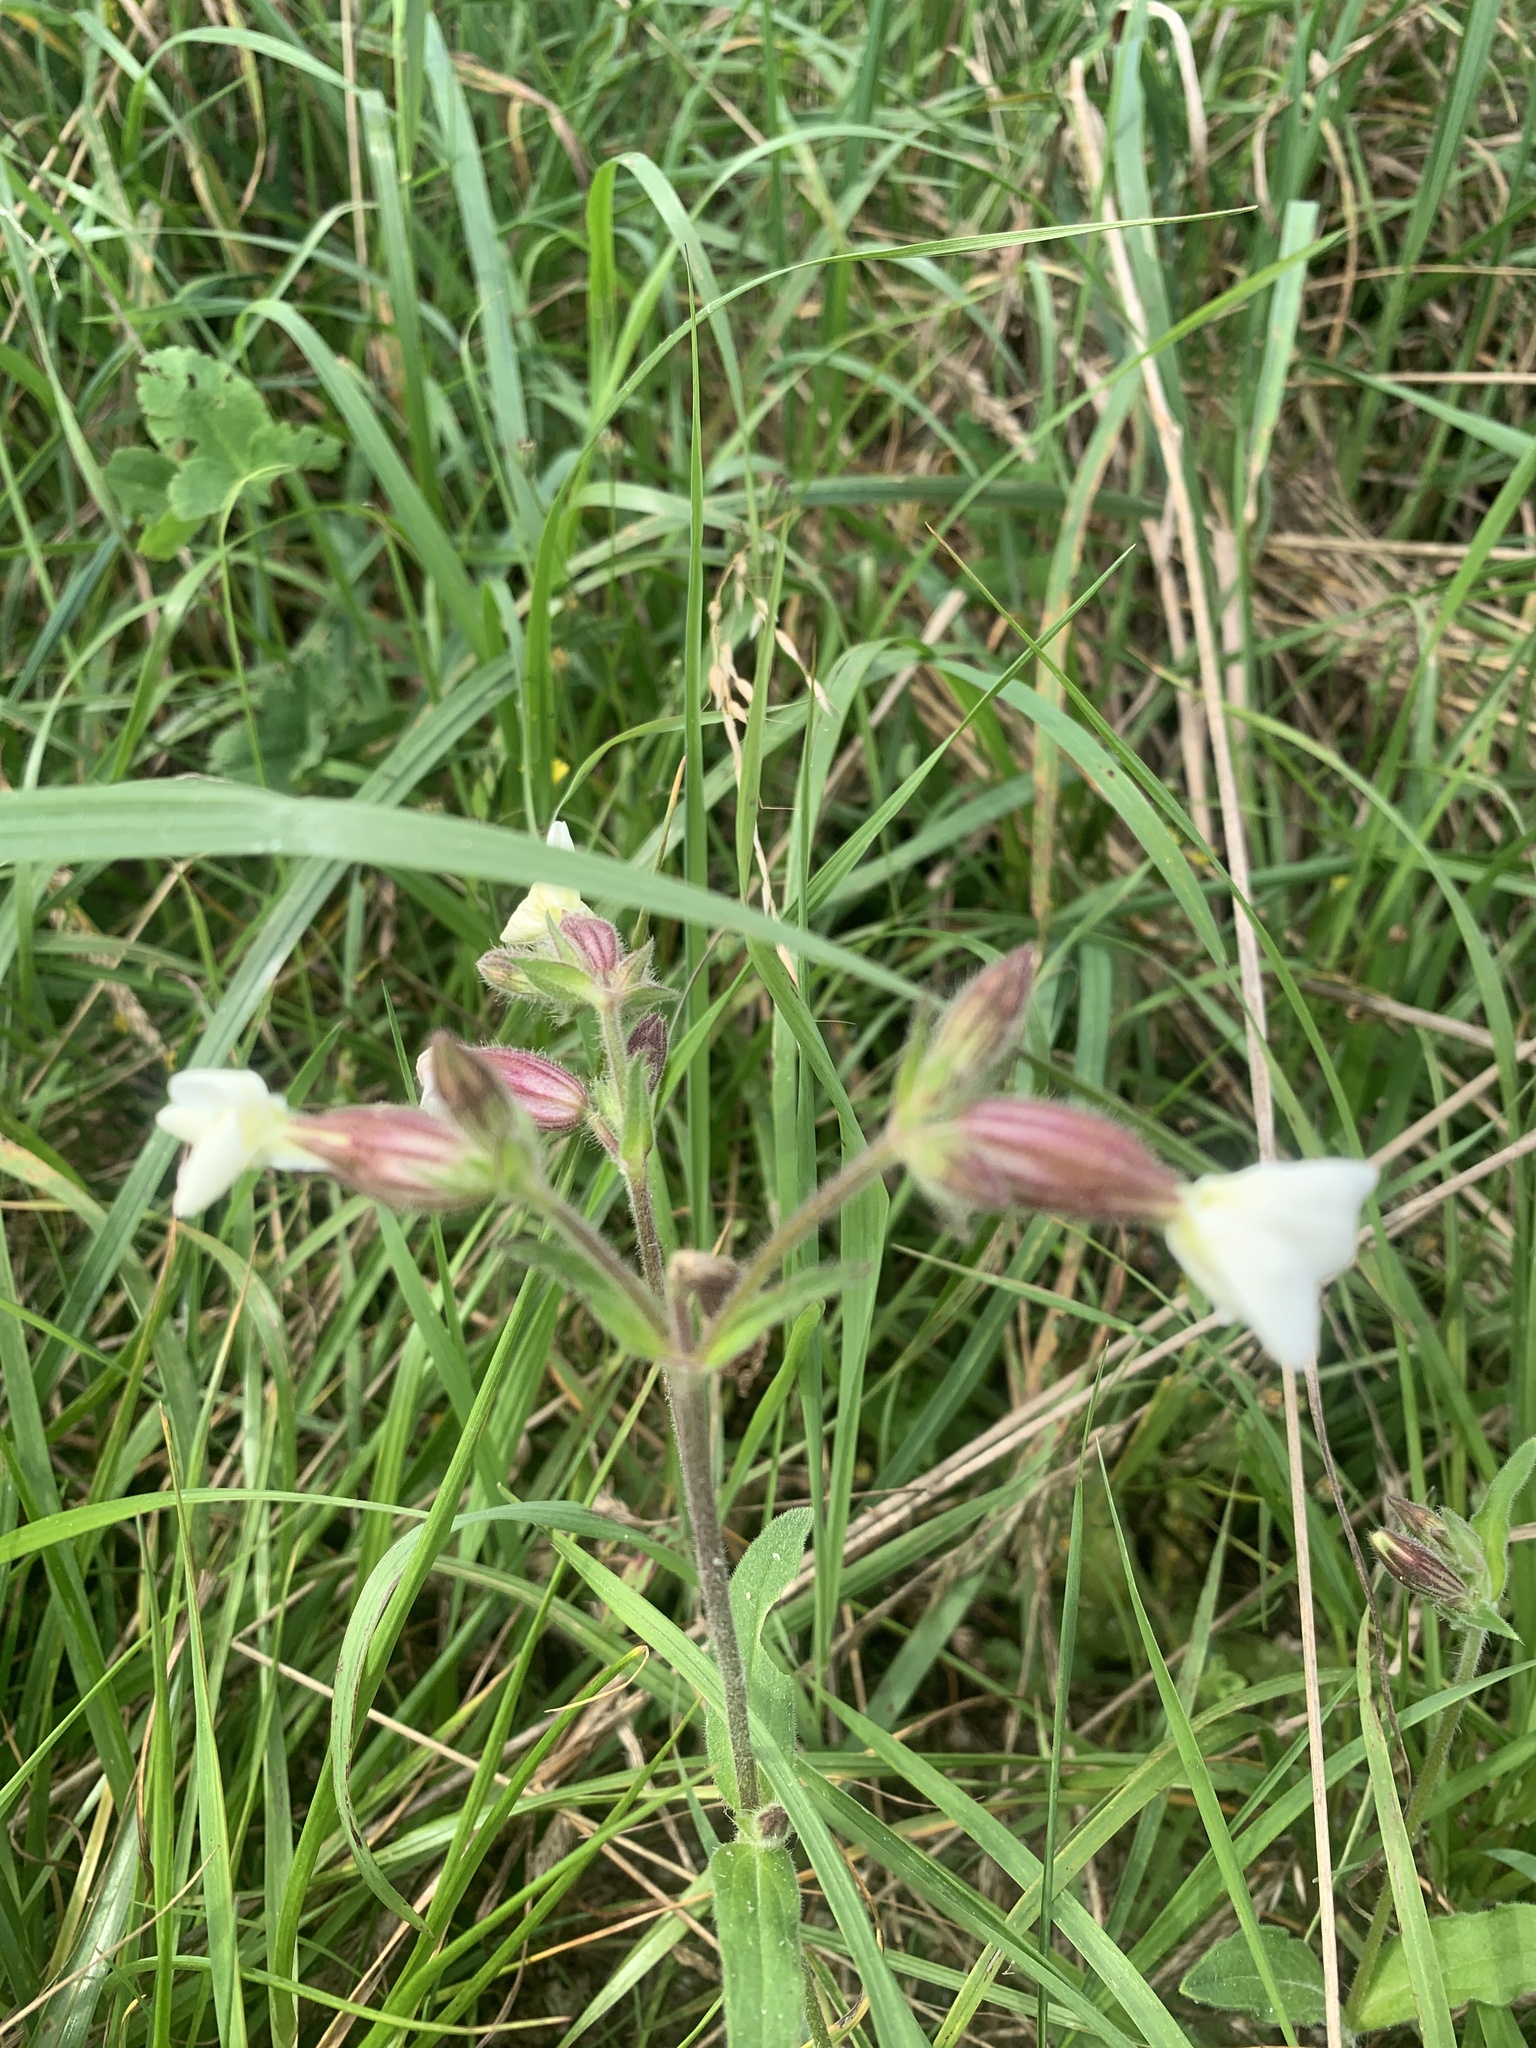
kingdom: Plantae
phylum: Tracheophyta
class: Magnoliopsida
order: Caryophyllales
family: Caryophyllaceae
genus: Silene
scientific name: Silene latifolia
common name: White campion
